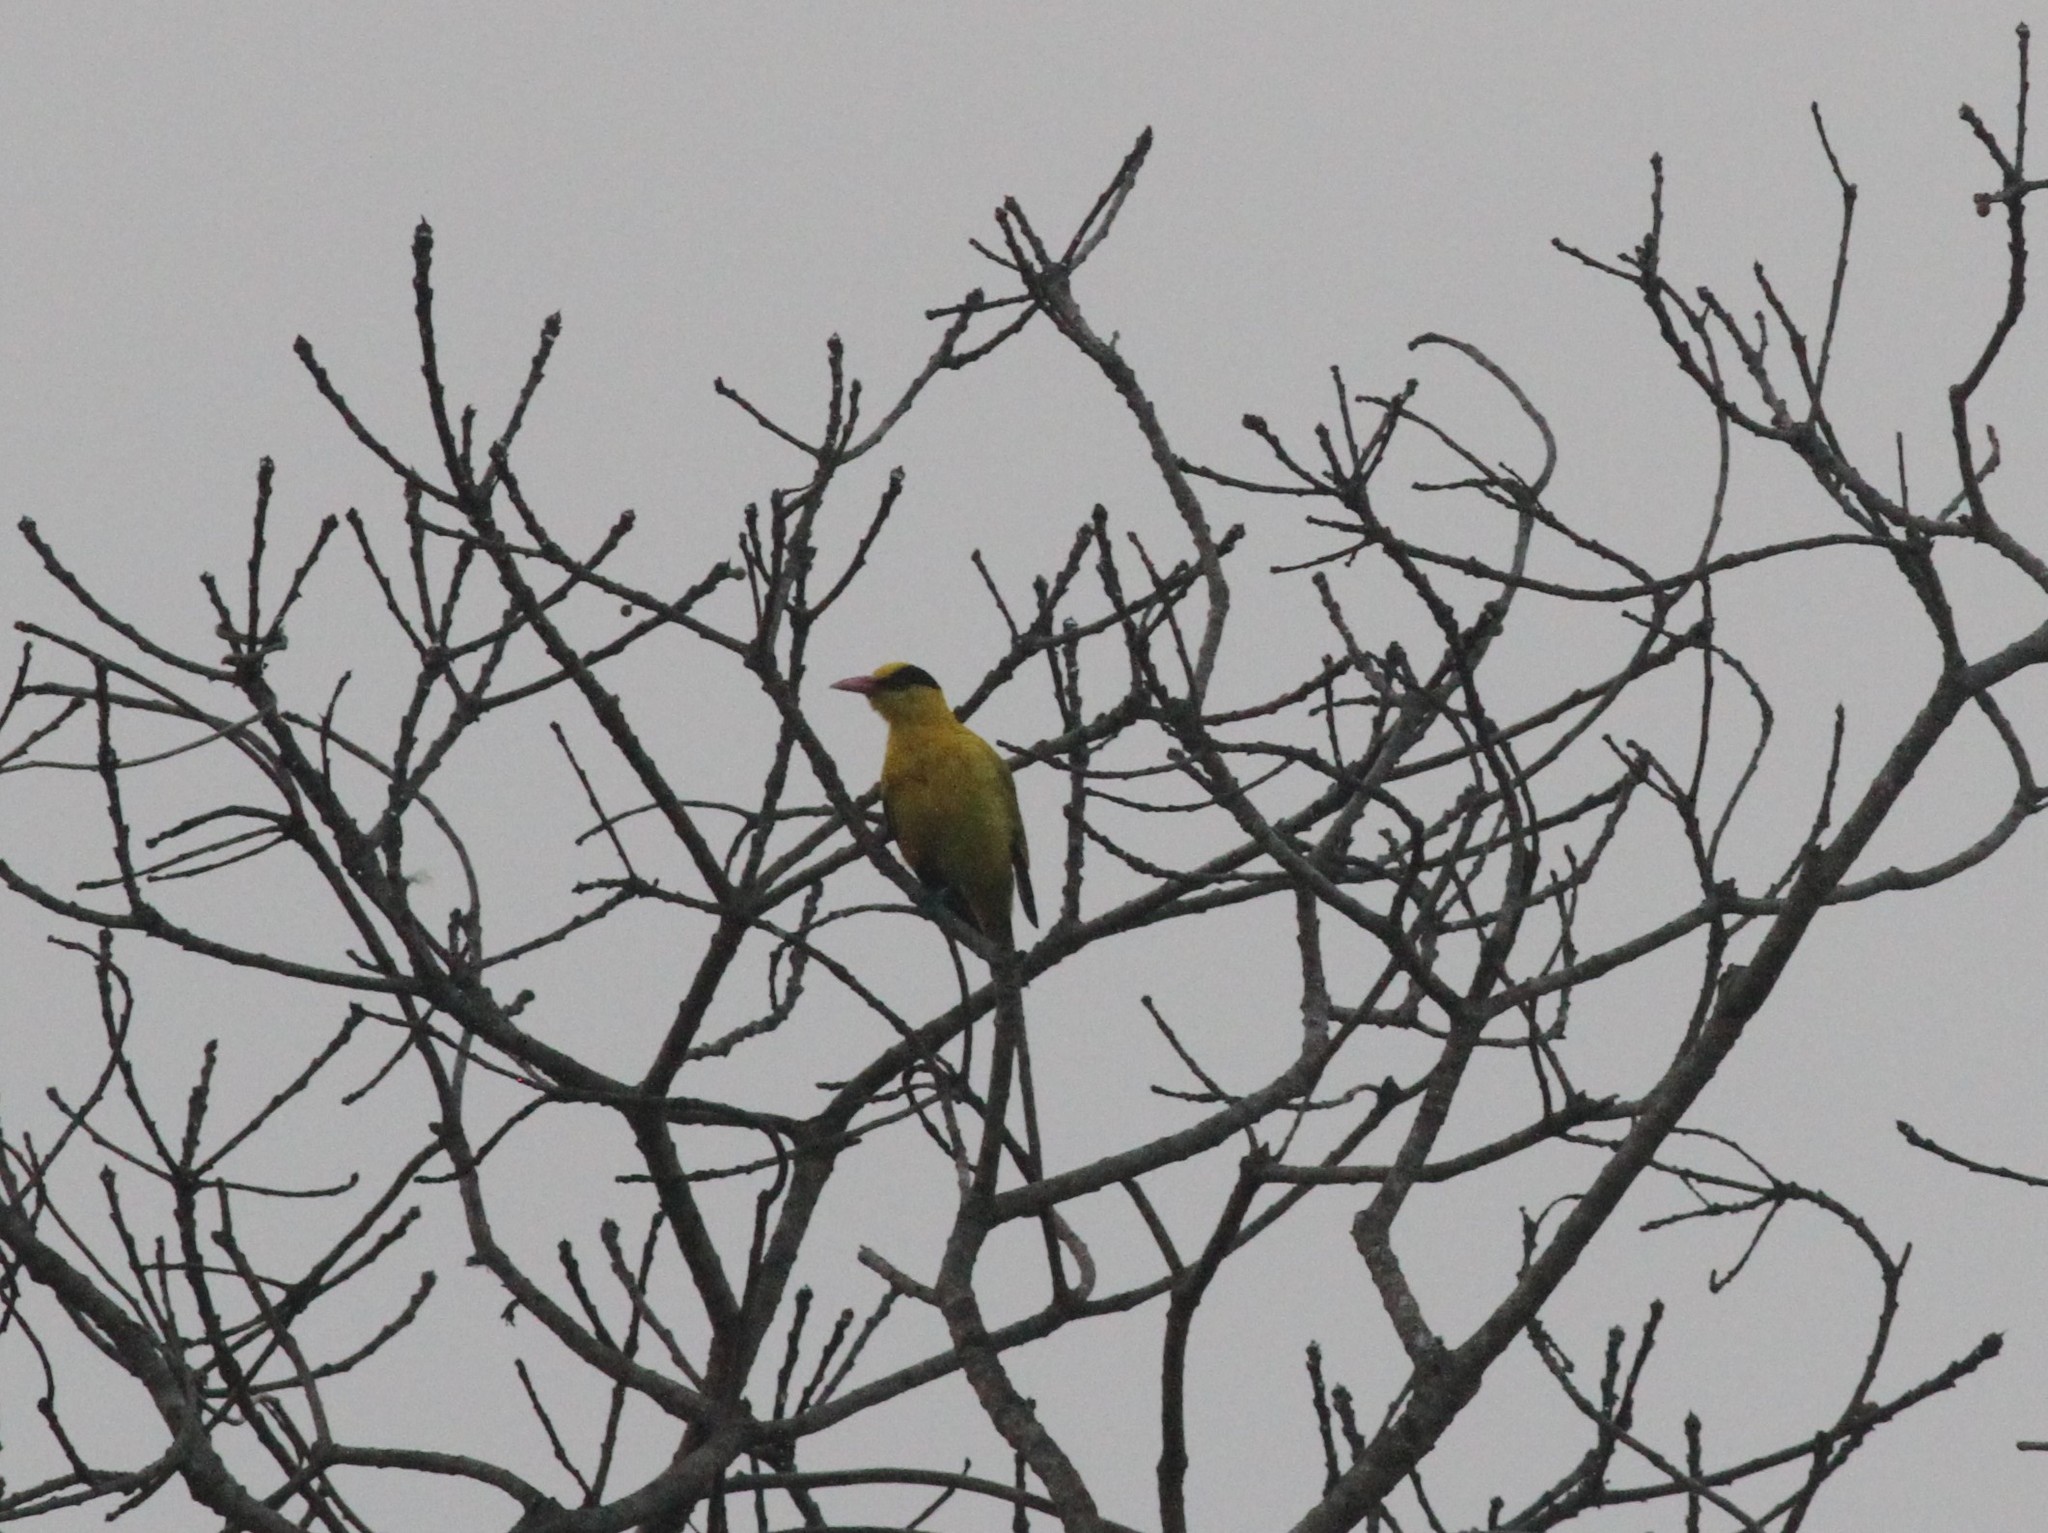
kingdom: Animalia
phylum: Chordata
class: Aves
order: Passeriformes
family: Oriolidae
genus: Oriolus
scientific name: Oriolus chinensis
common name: Black-naped oriole
